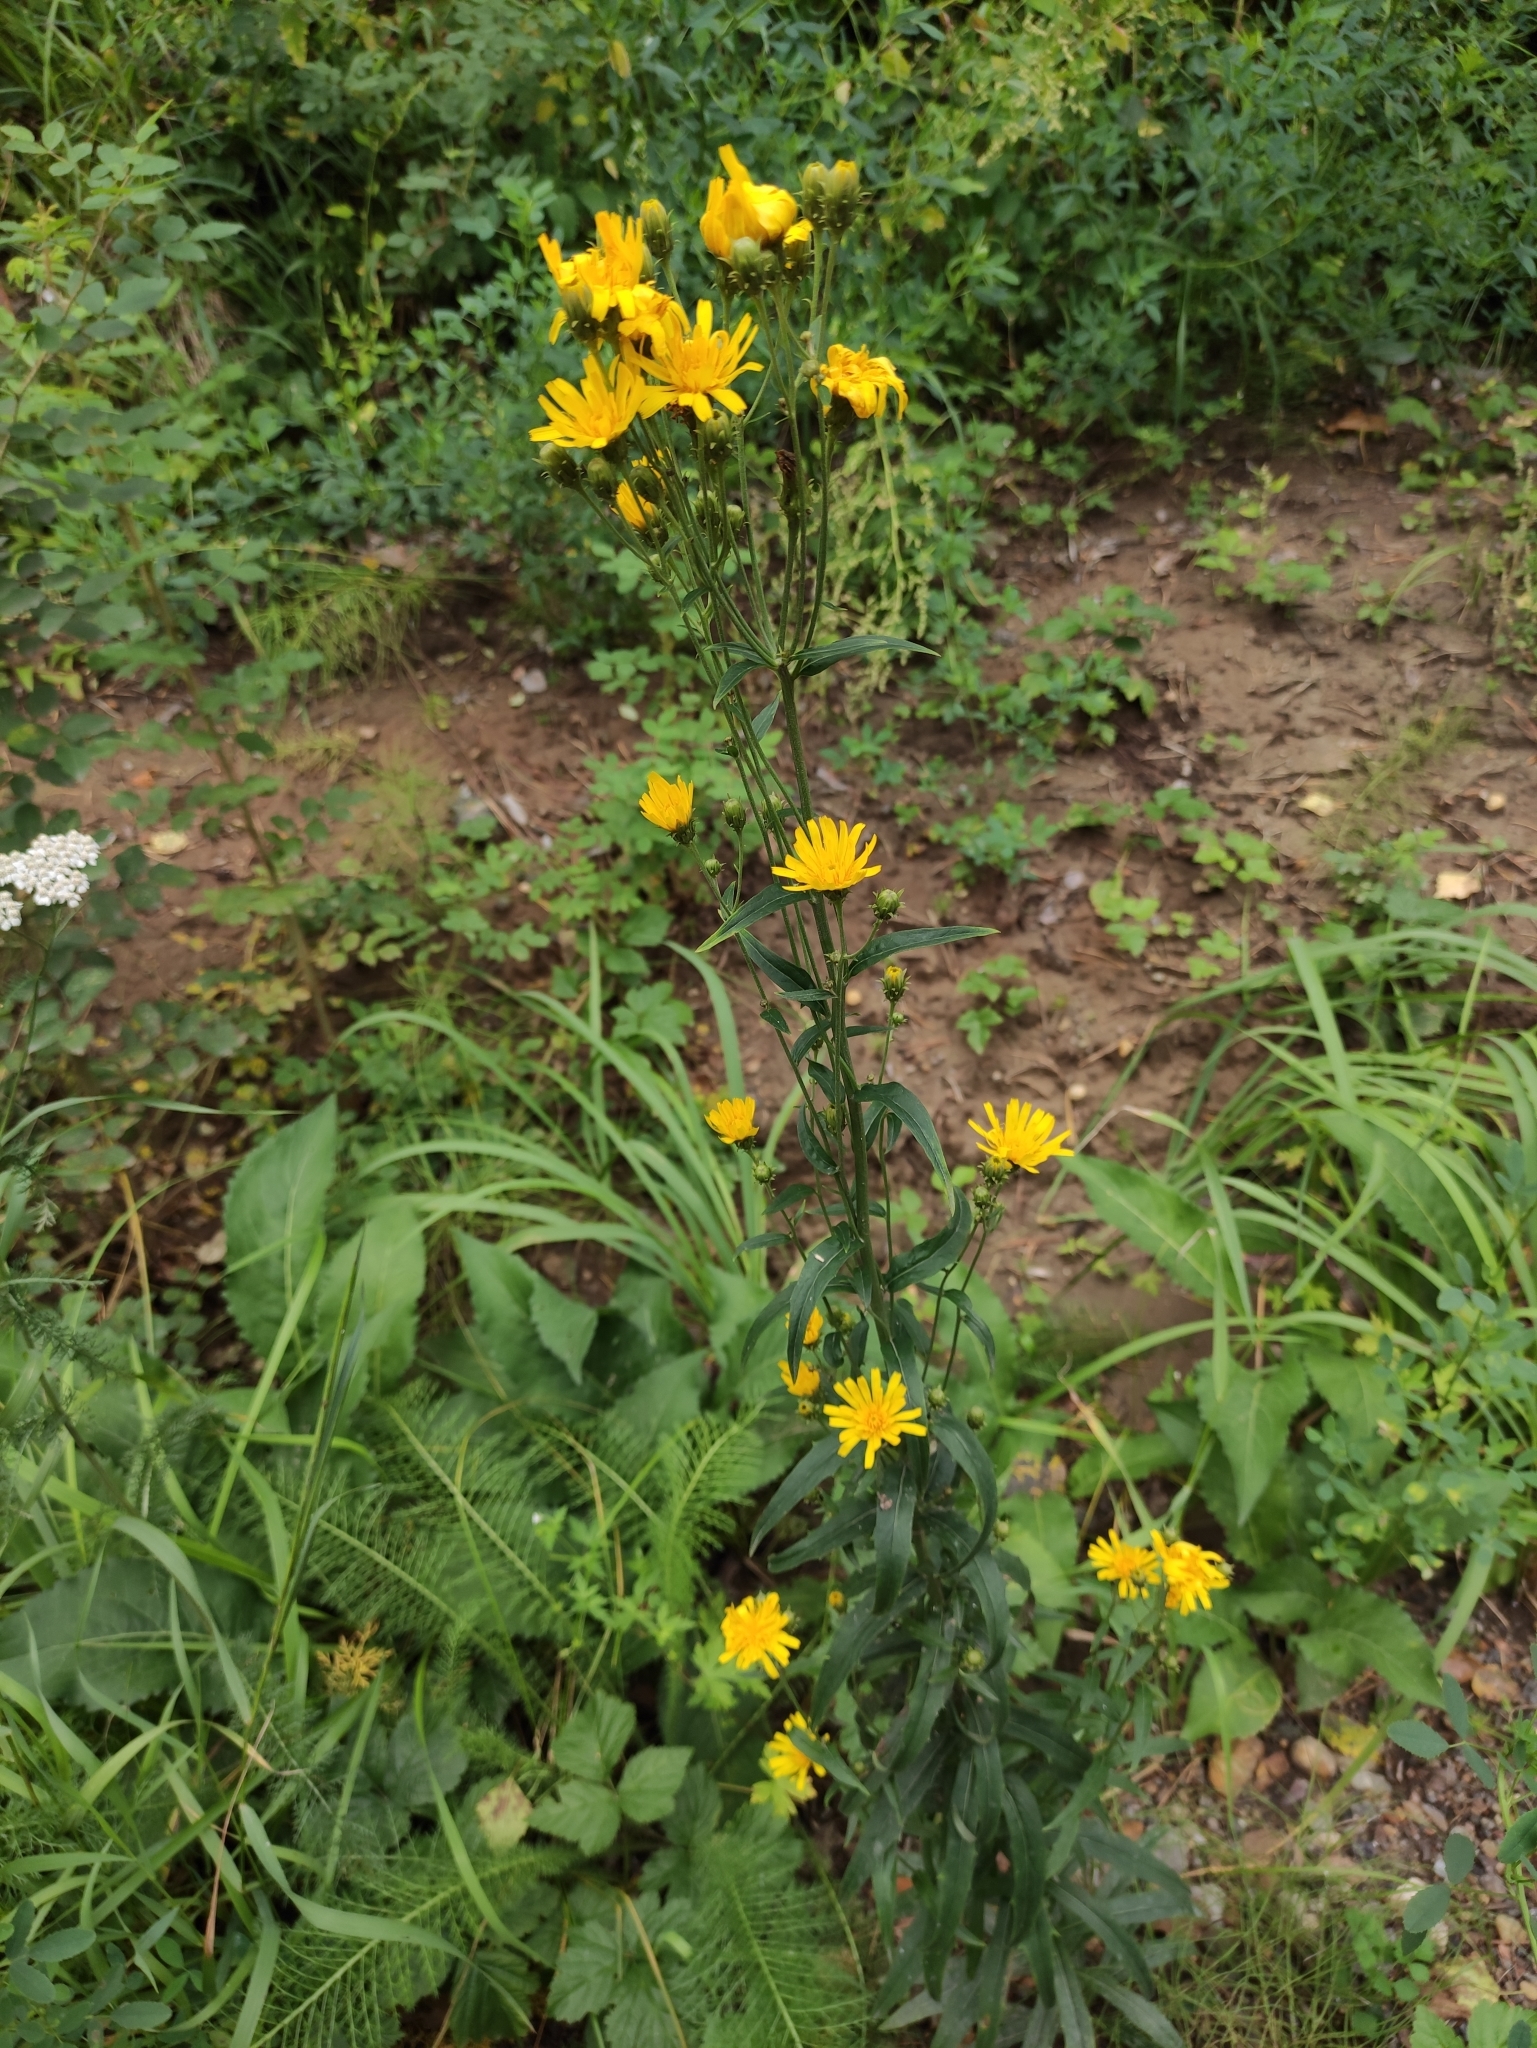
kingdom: Plantae
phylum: Tracheophyta
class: Magnoliopsida
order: Asterales
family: Asteraceae
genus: Hieracium
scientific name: Hieracium umbellatum
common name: Northern hawkweed
